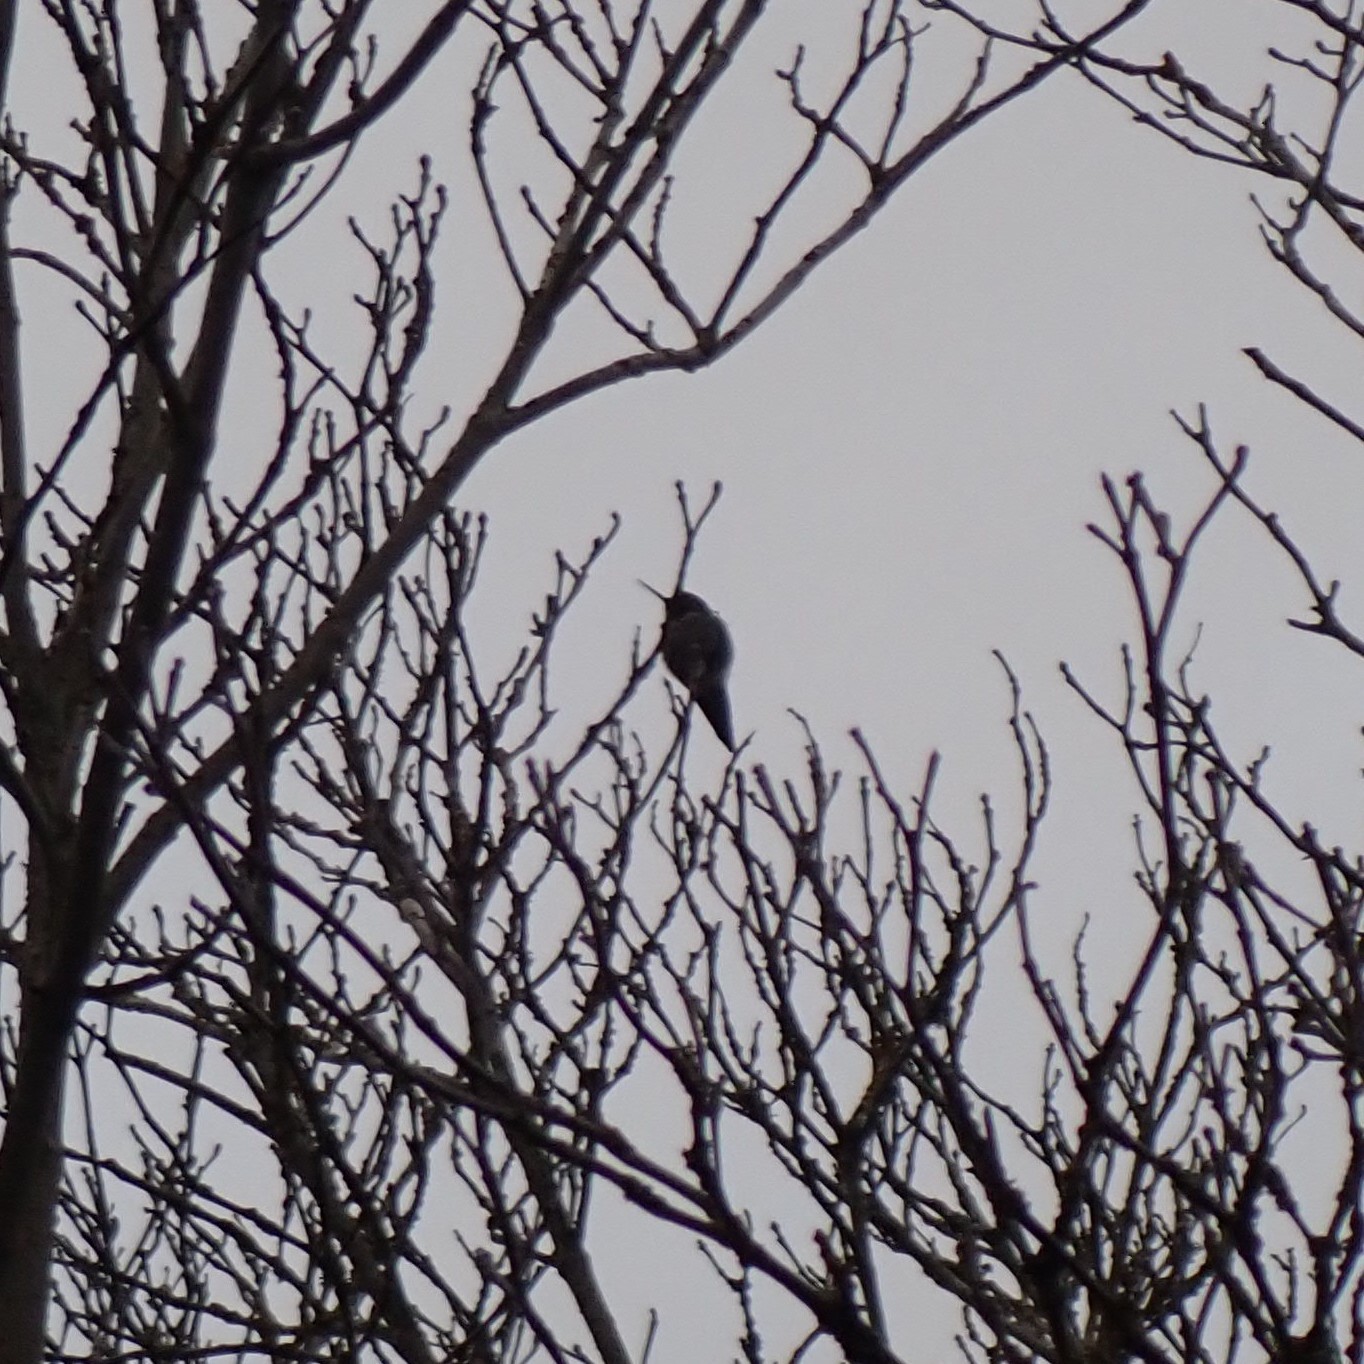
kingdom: Animalia
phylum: Chordata
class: Aves
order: Apodiformes
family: Trochilidae
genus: Calypte
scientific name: Calypte anna
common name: Anna's hummingbird
